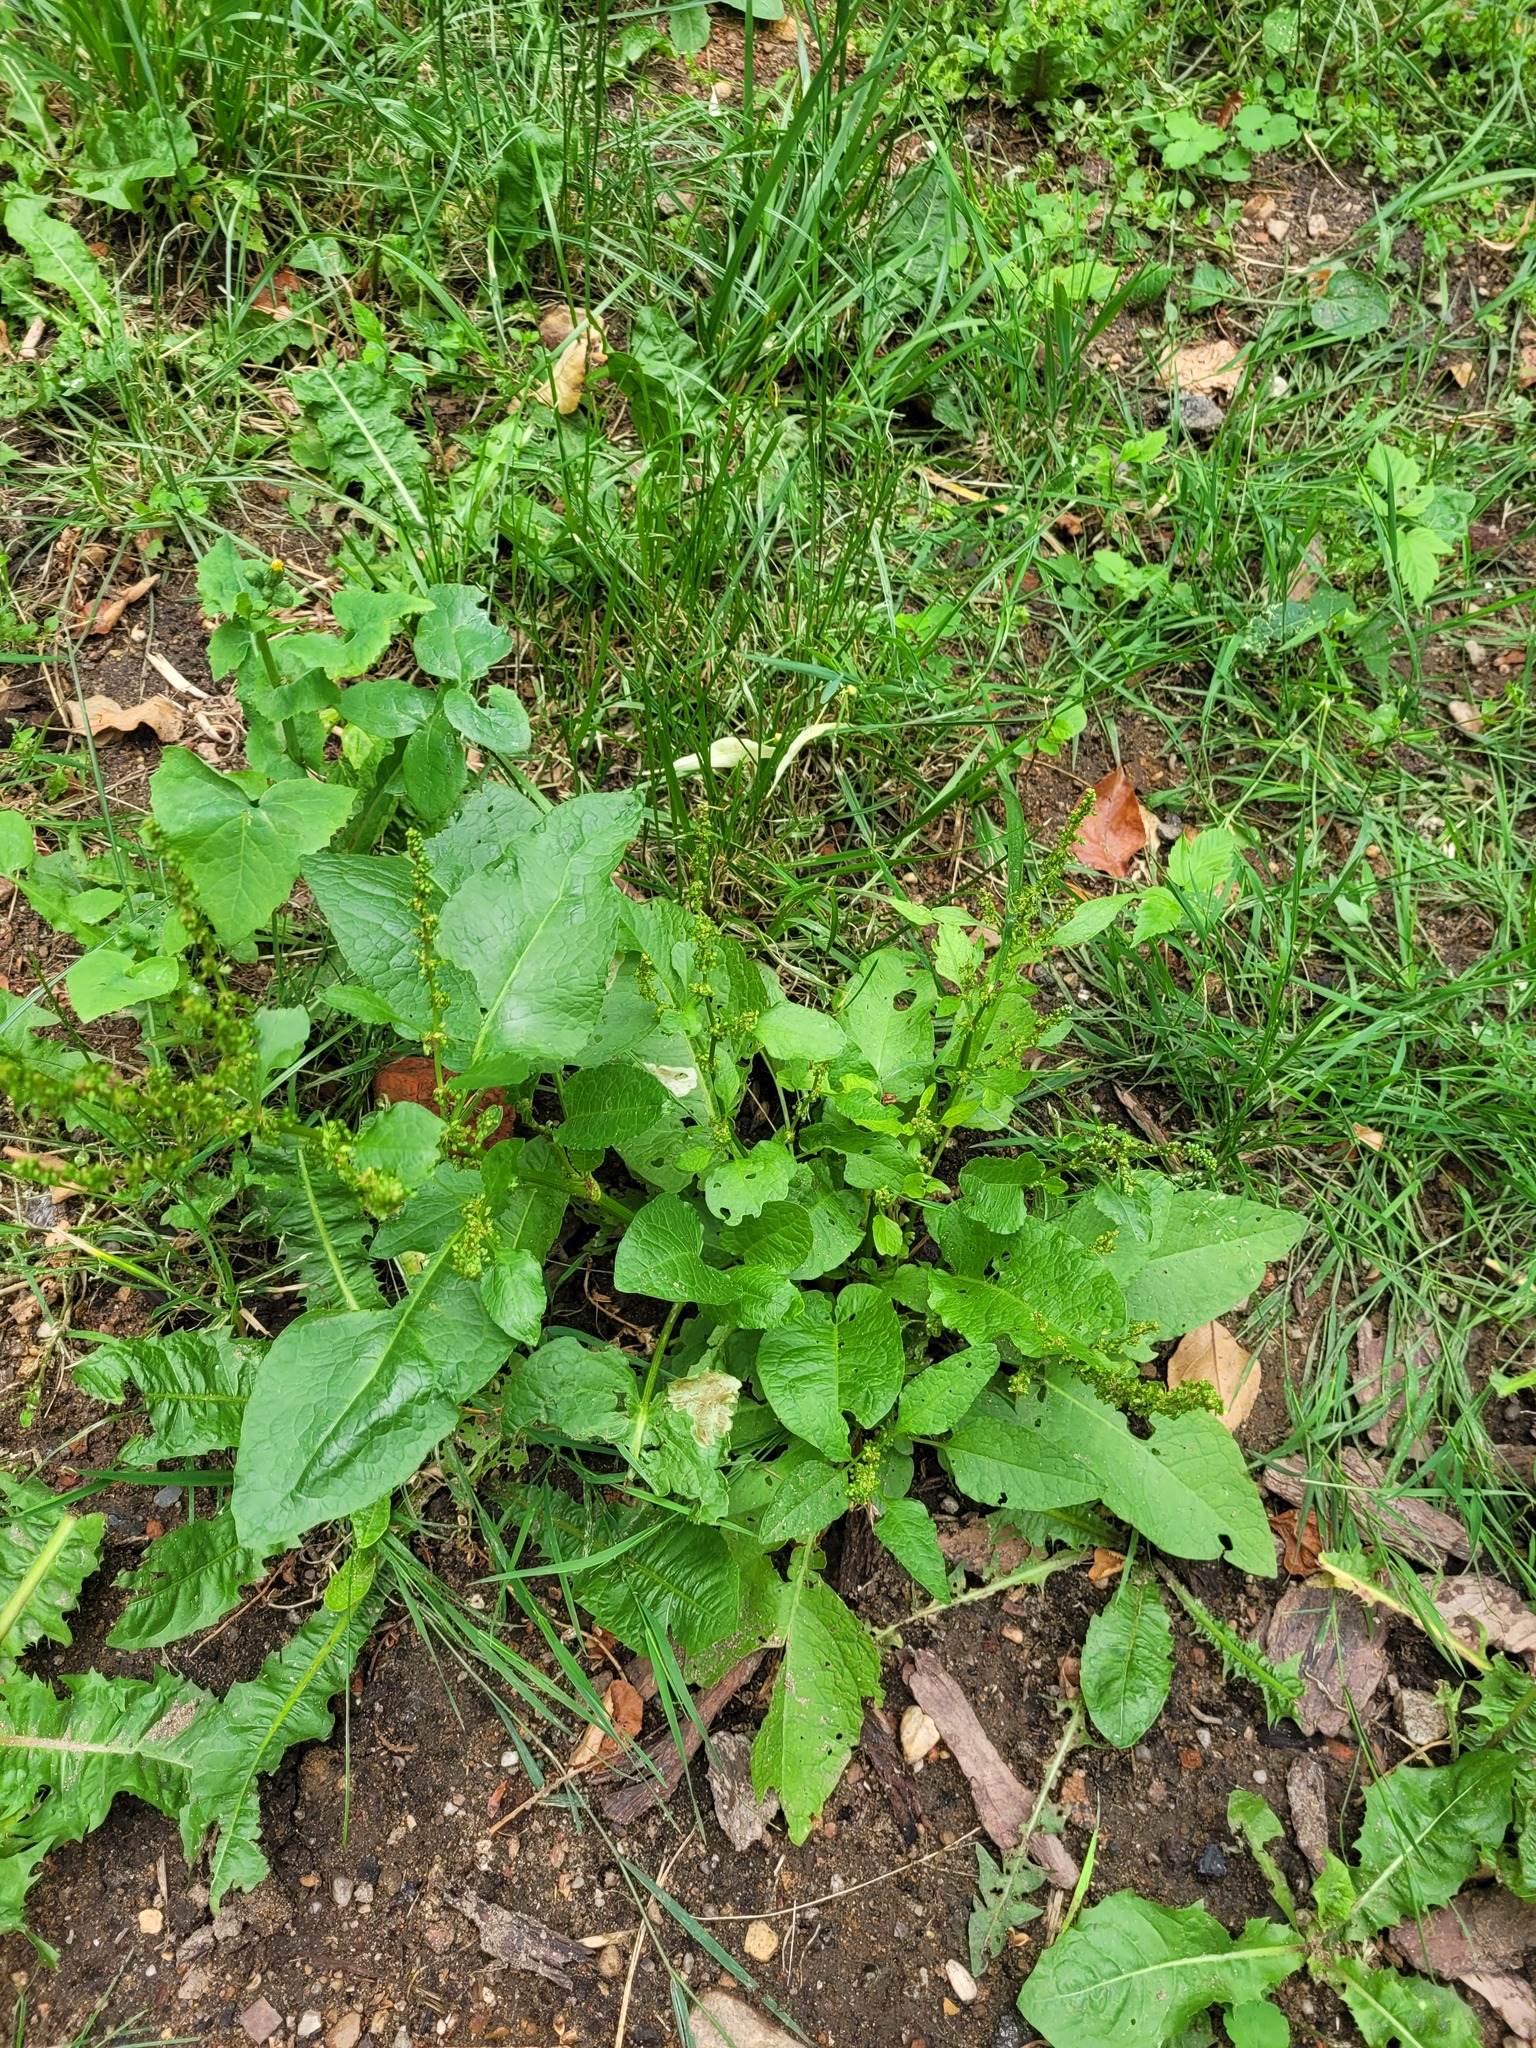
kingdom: Plantae
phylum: Tracheophyta
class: Magnoliopsida
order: Caryophyllales
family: Polygonaceae
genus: Rumex
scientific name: Rumex obtusifolius
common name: Bitter dock
